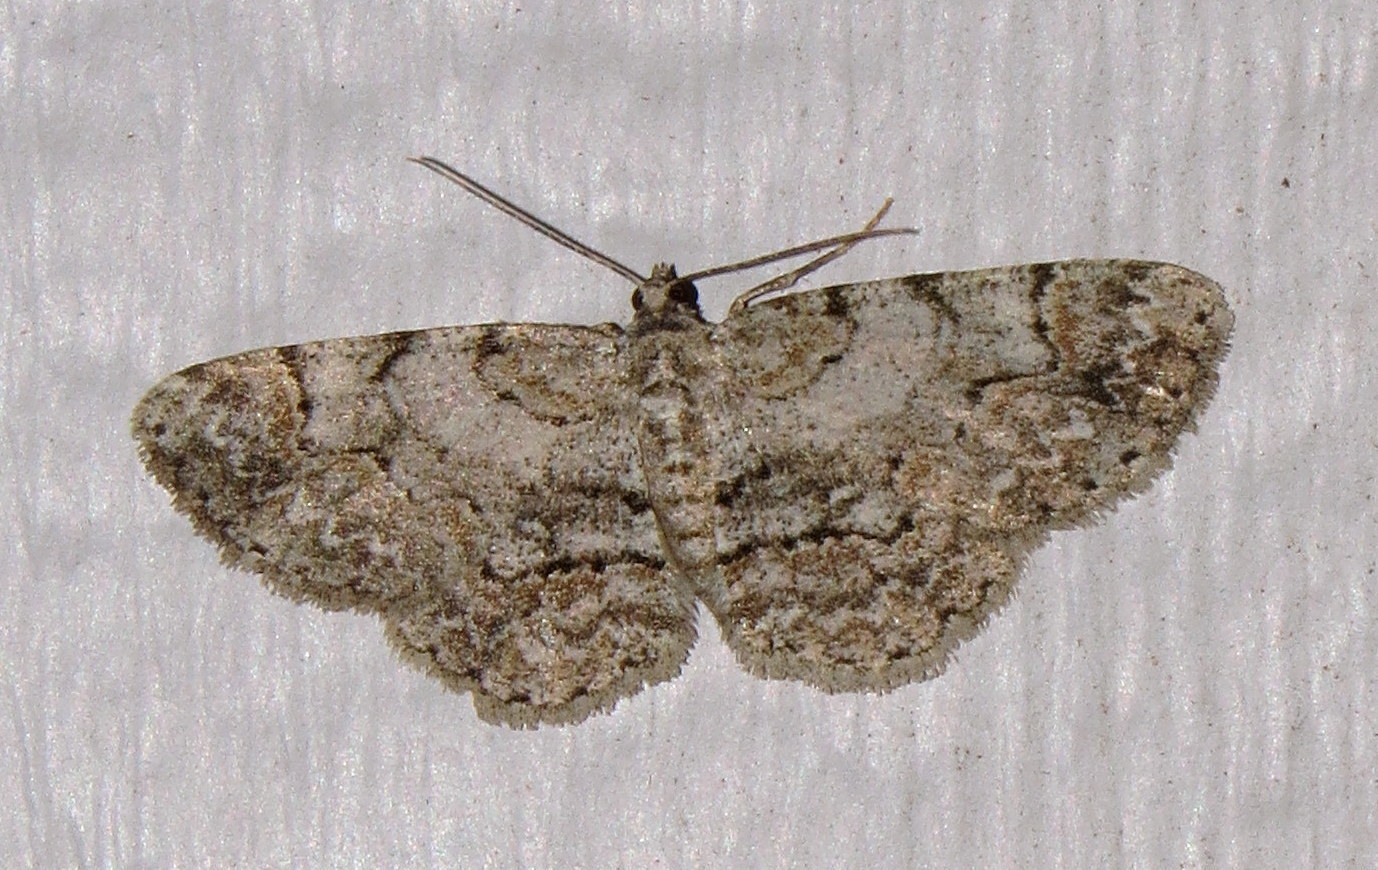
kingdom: Animalia
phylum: Arthropoda
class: Insecta
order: Lepidoptera
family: Geometridae
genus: Iridopsis
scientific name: Iridopsis ephyraria
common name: Pale-winged gray
